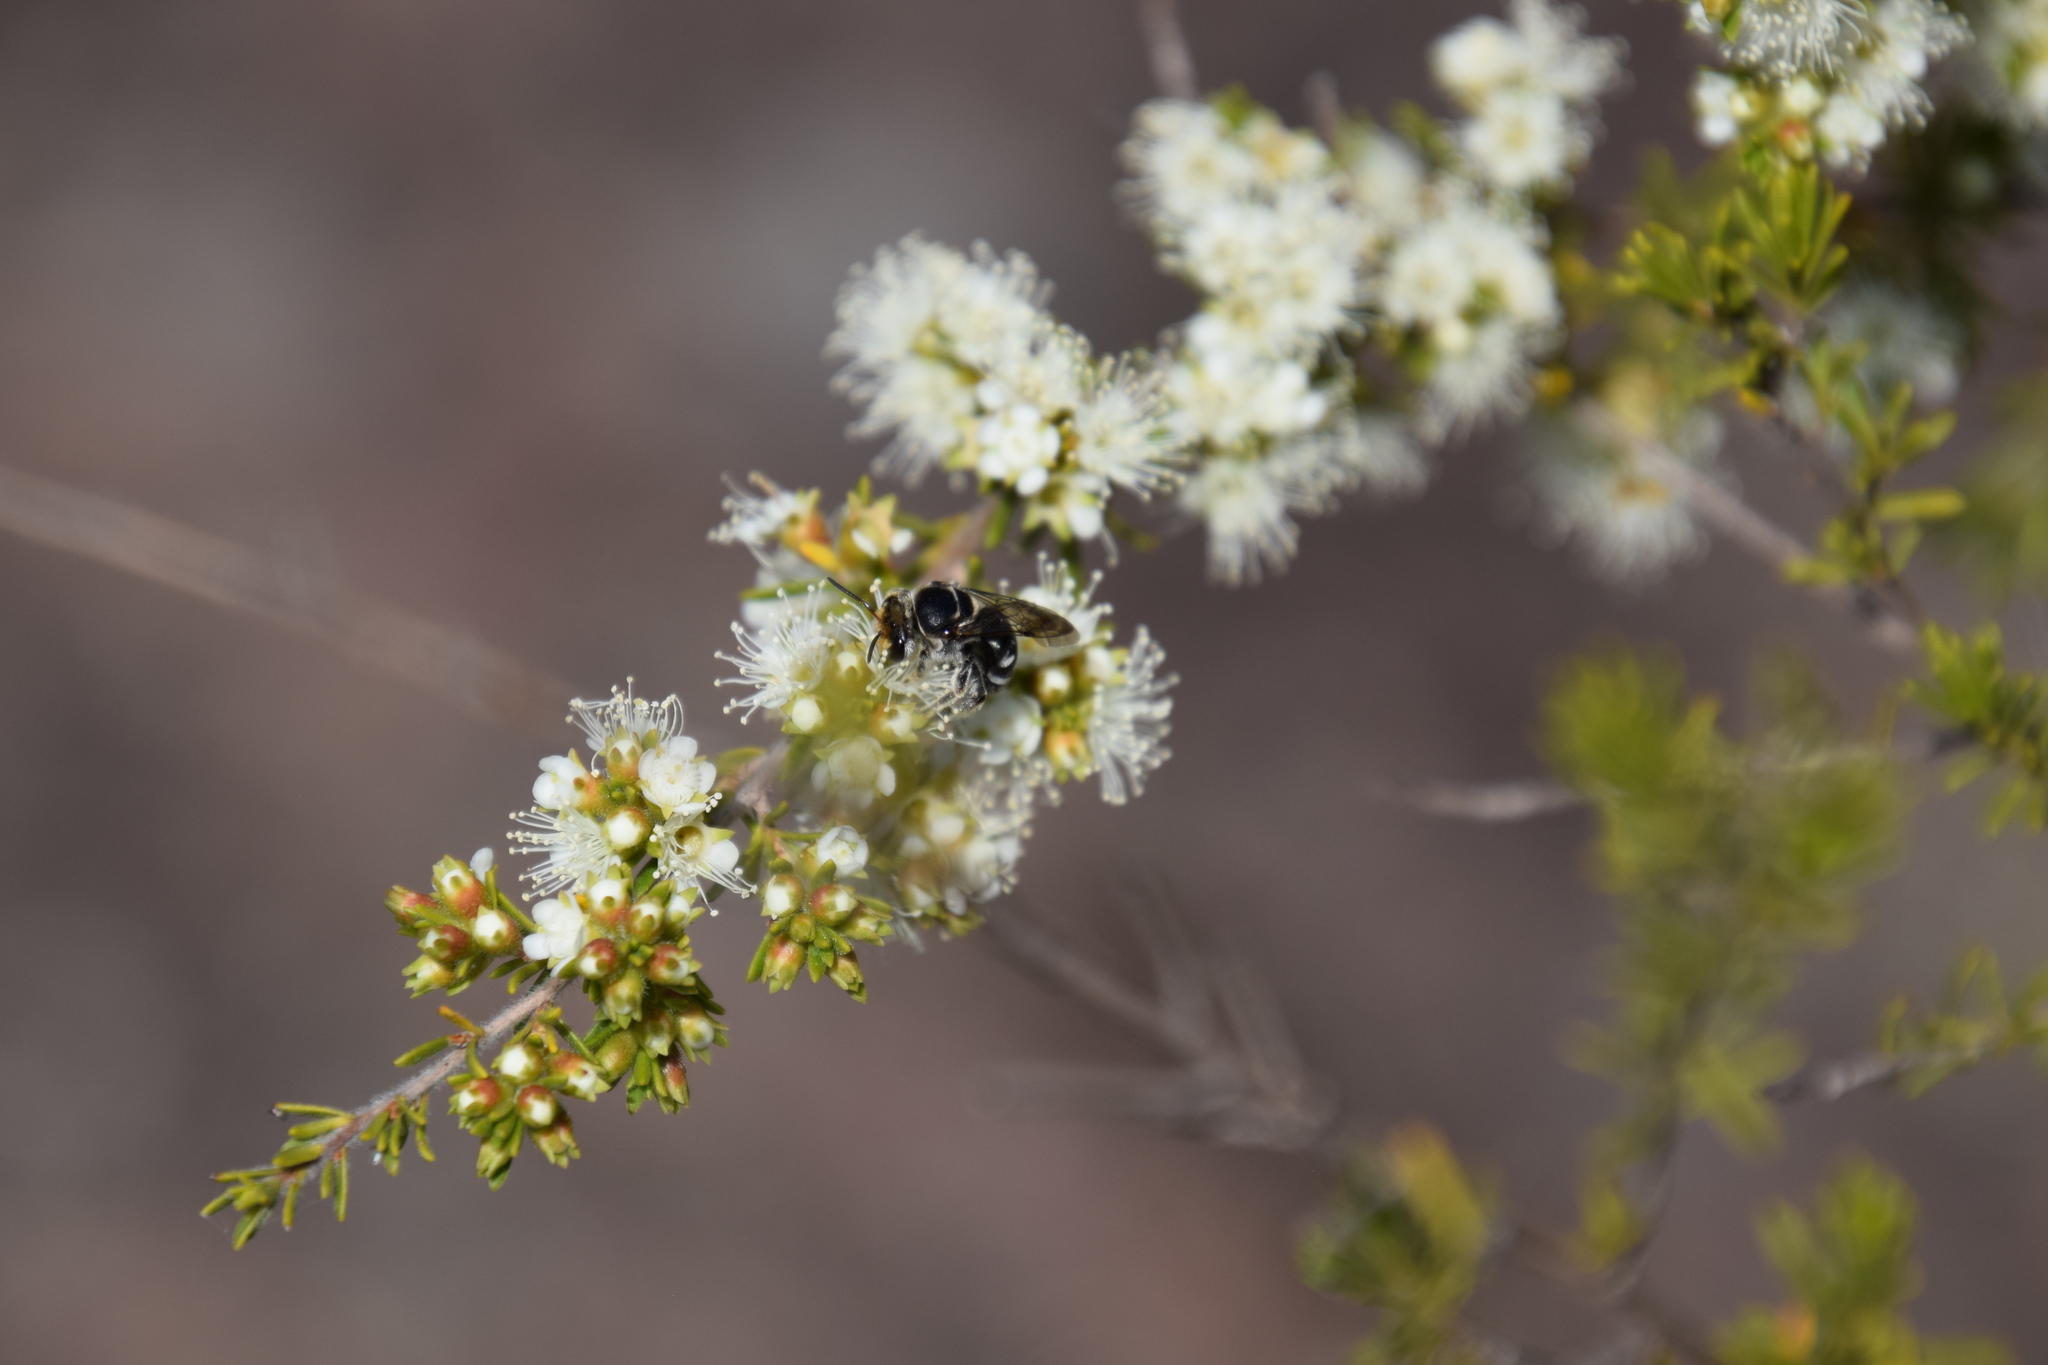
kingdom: Animalia
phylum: Arthropoda
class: Insecta
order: Hymenoptera
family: Halictidae
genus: Lipotriches
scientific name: Lipotriches australica
